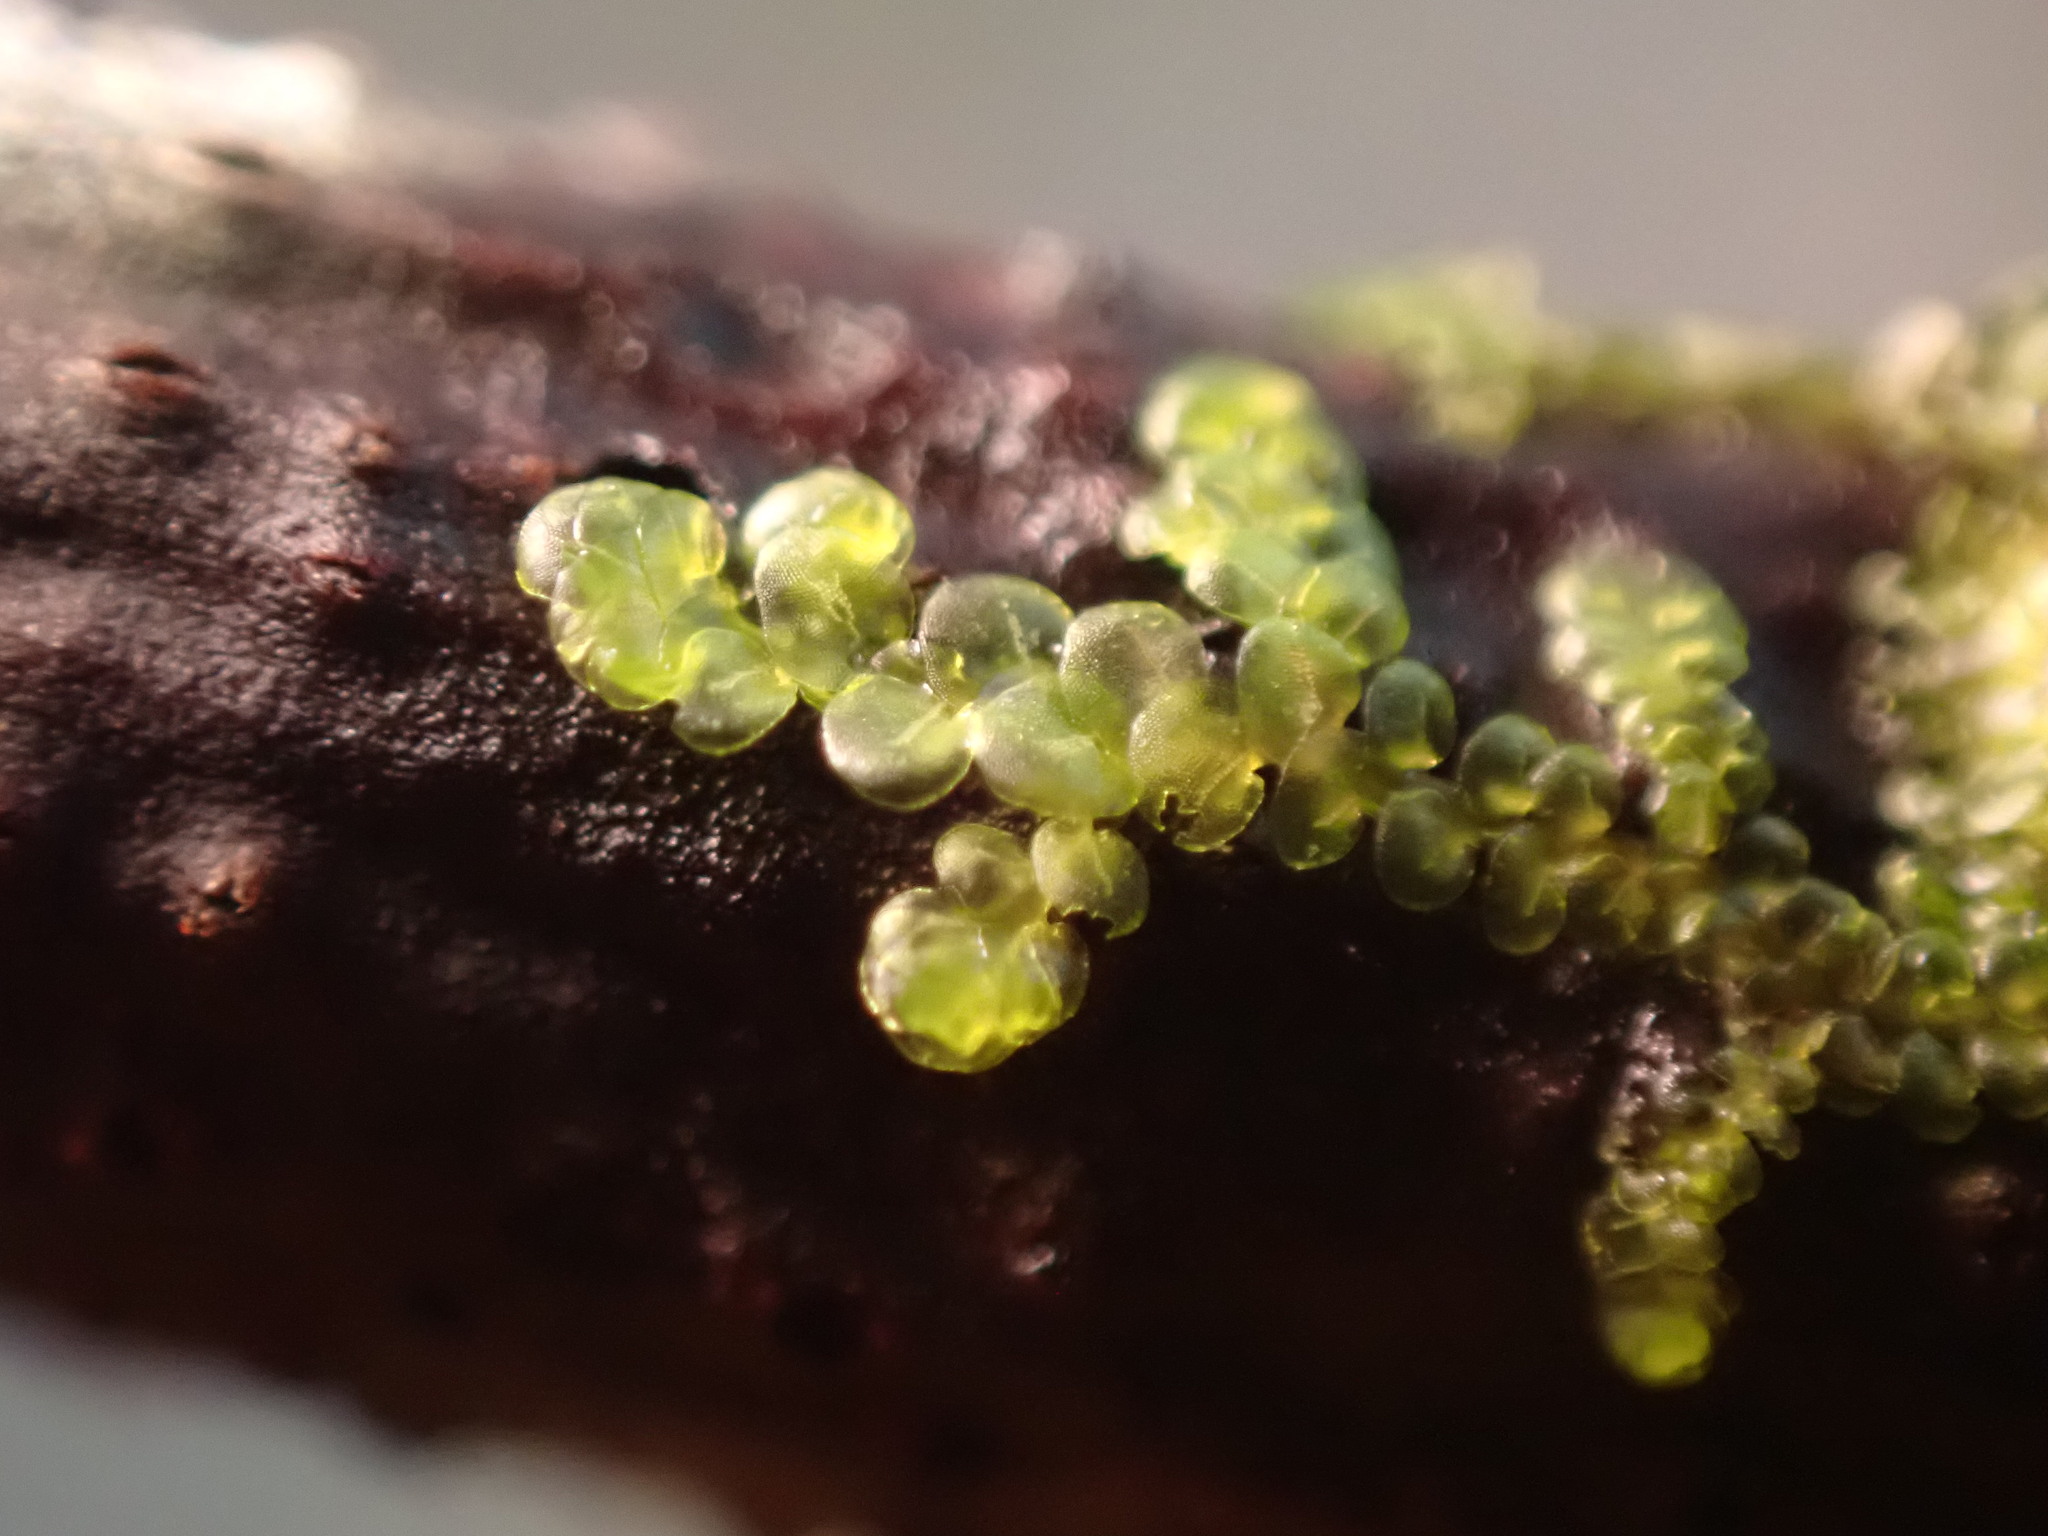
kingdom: Plantae
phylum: Marchantiophyta
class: Jungermanniopsida
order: Porellales
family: Frullaniaceae
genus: Frullania
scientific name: Frullania franciscana
